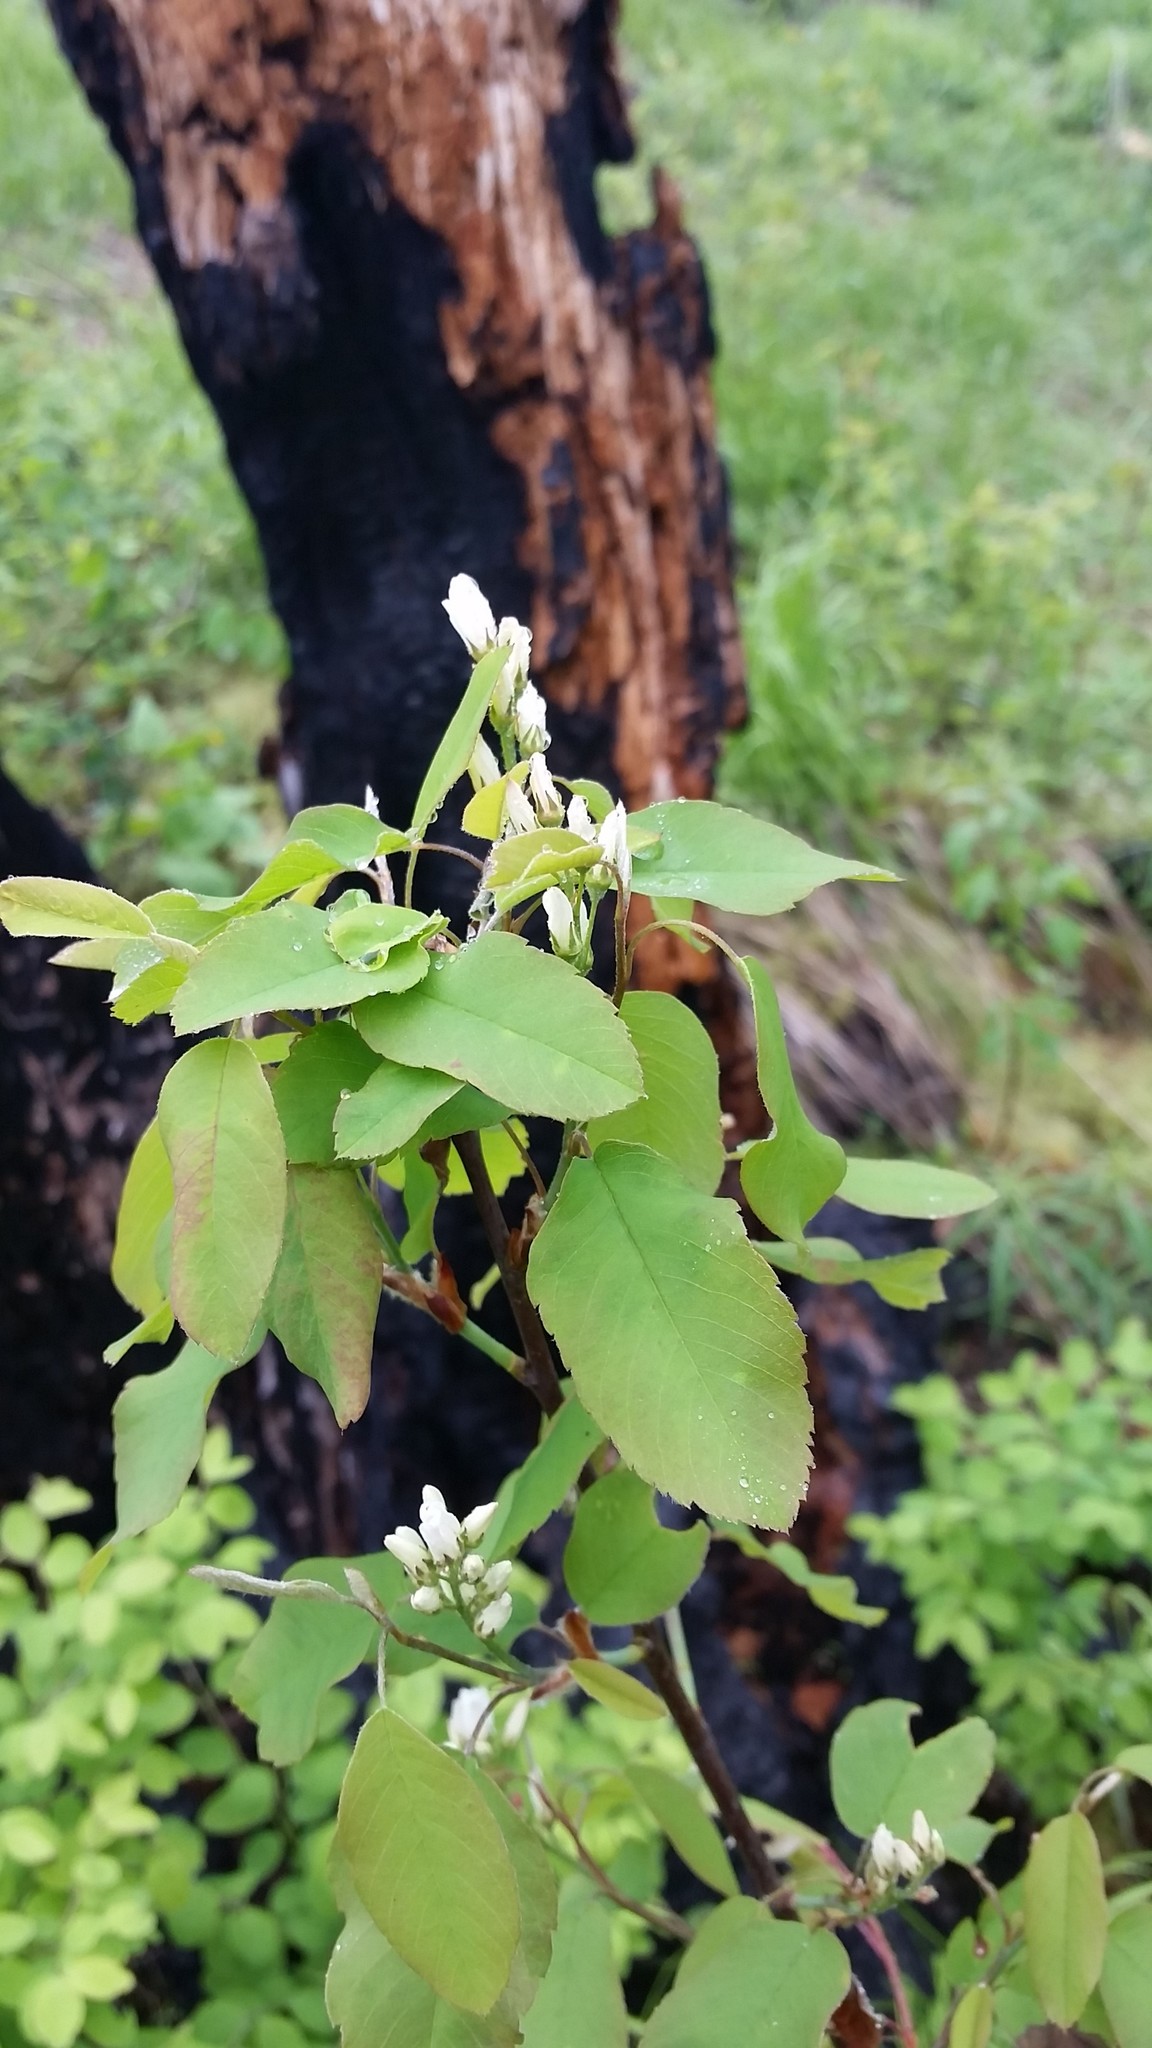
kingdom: Plantae
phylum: Tracheophyta
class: Magnoliopsida
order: Rosales
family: Rosaceae
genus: Amelanchier
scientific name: Amelanchier alnifolia
